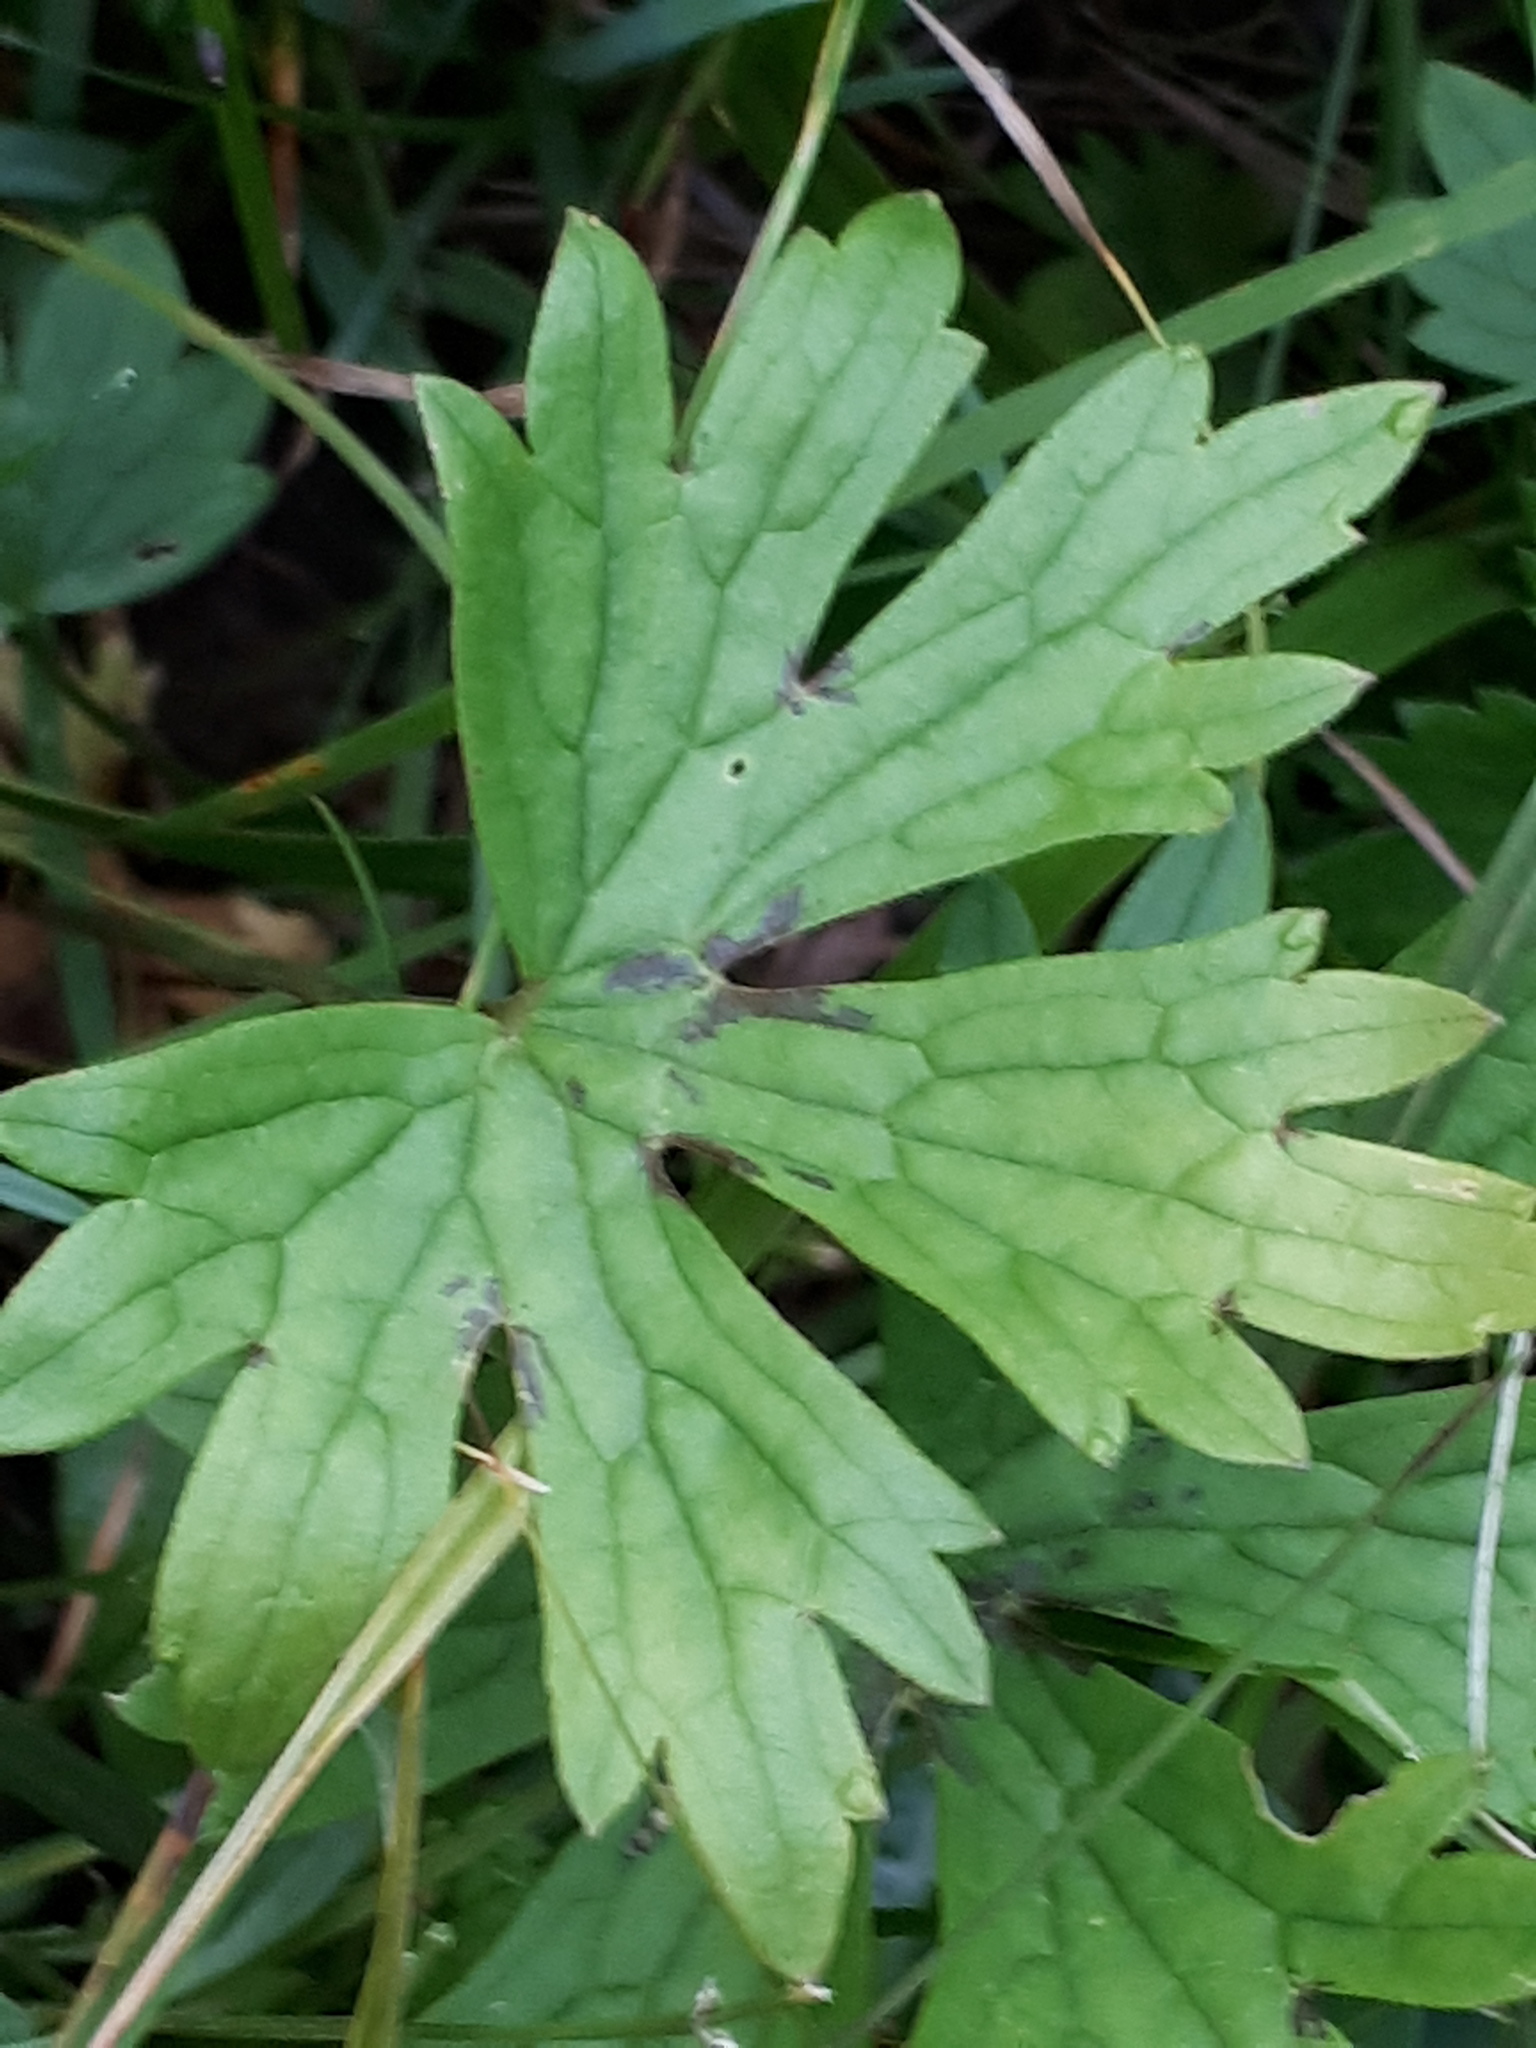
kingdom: Plantae
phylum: Tracheophyta
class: Magnoliopsida
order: Ranunculales
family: Ranunculaceae
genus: Ranunculus
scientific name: Ranunculus acris
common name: Meadow buttercup
